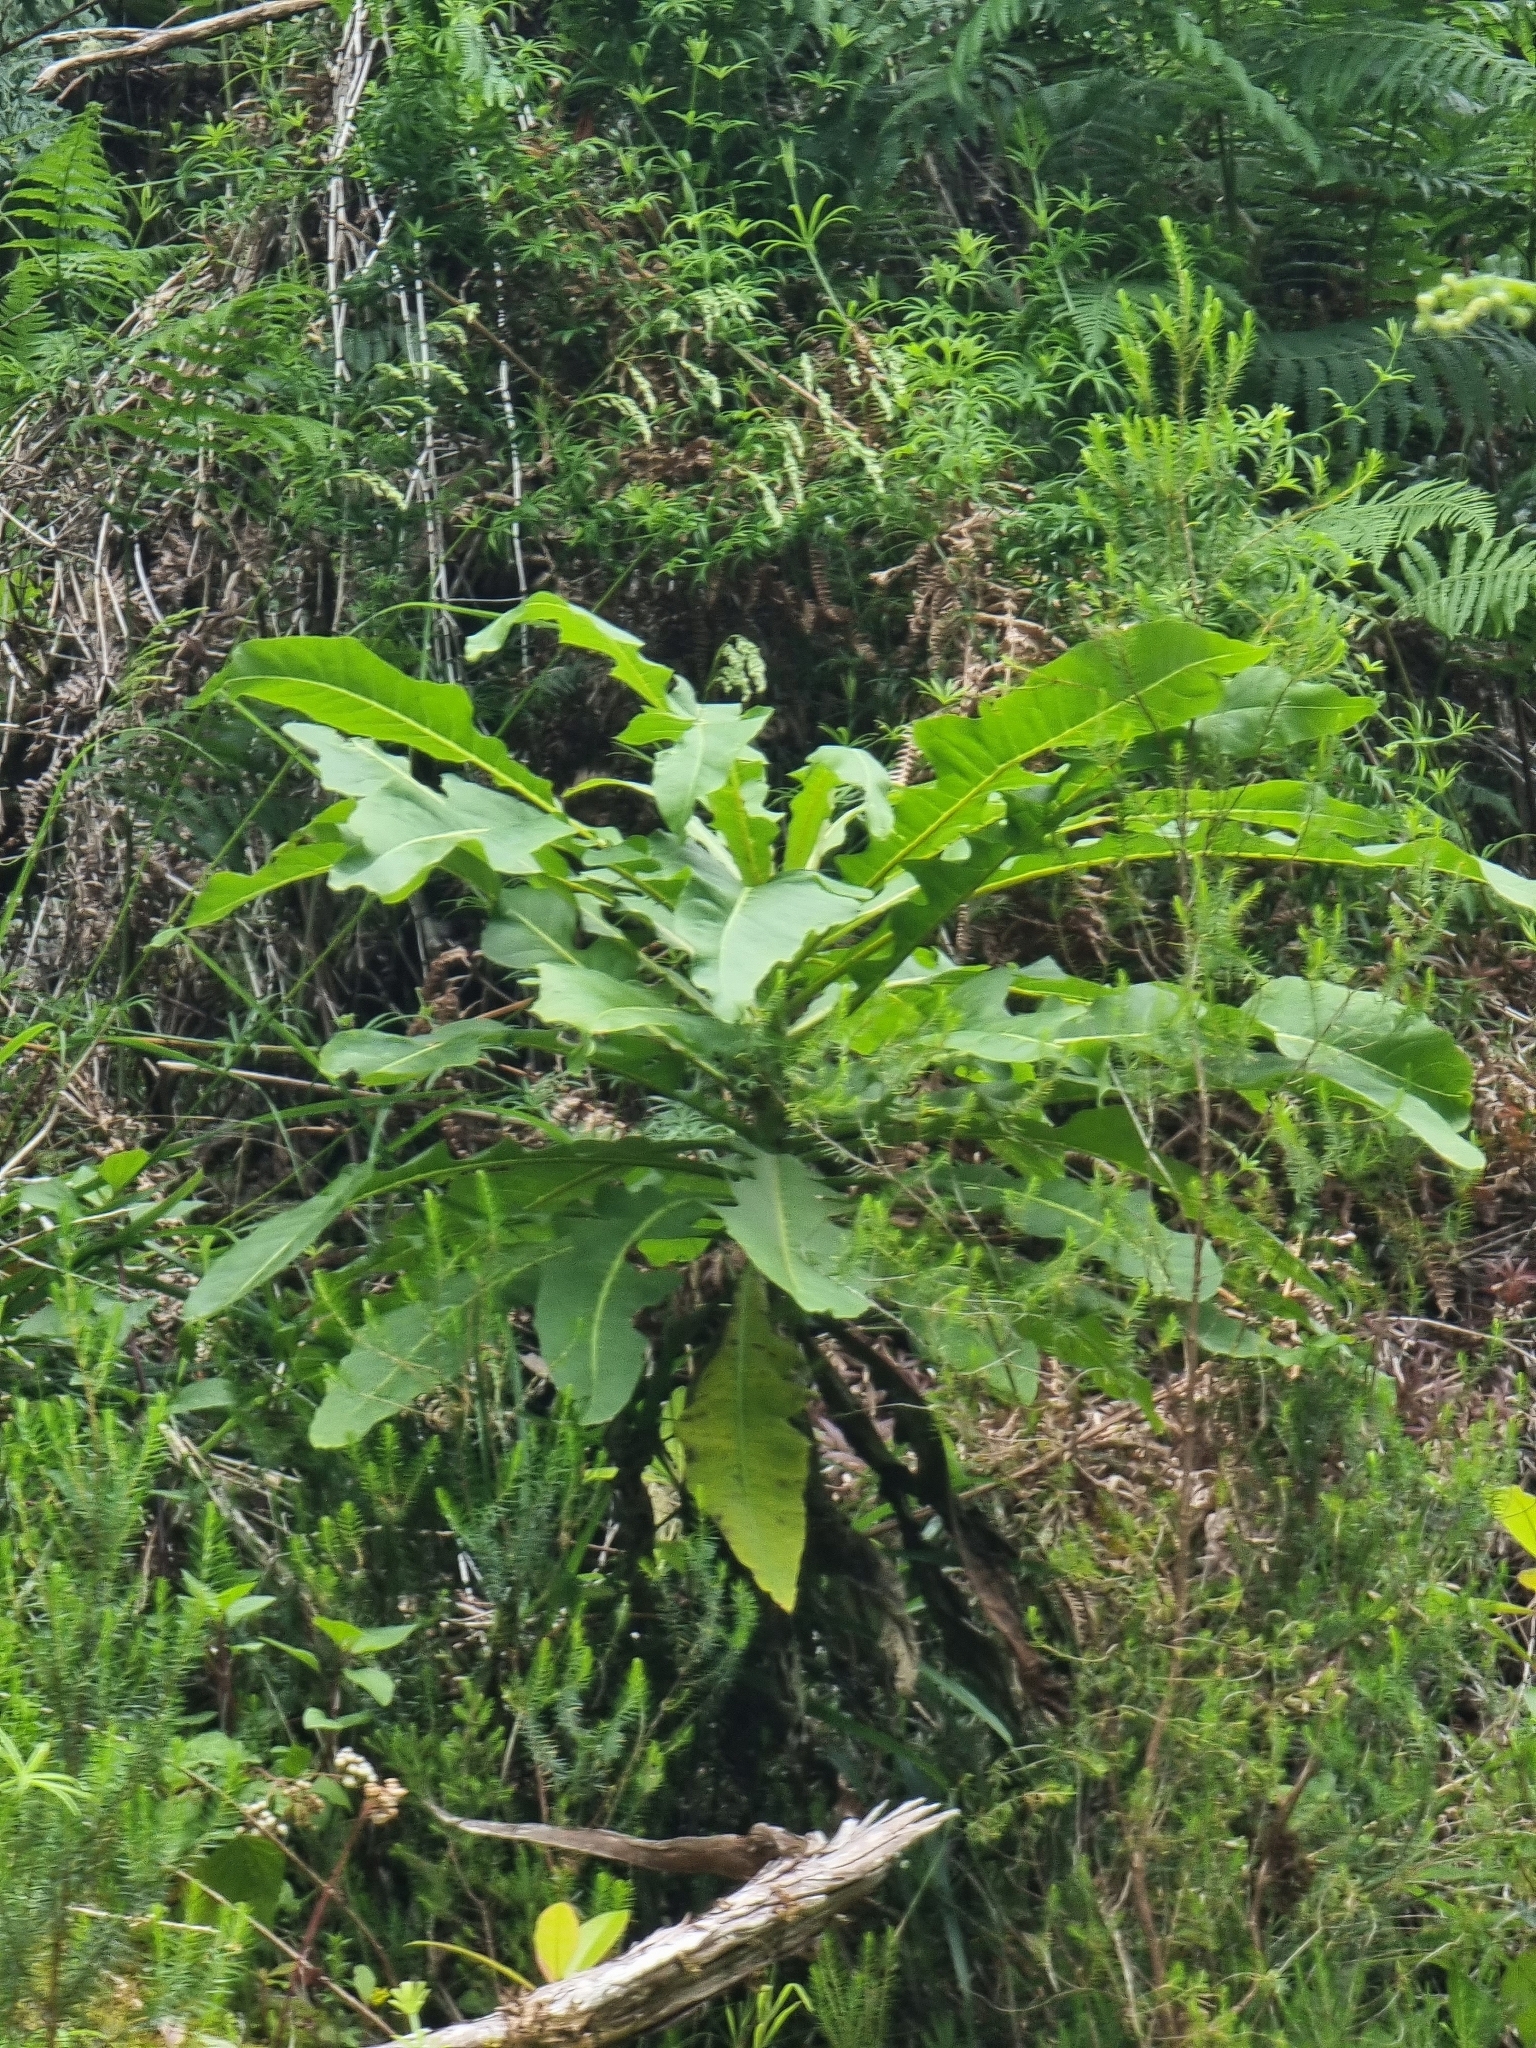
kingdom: Plantae
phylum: Tracheophyta
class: Magnoliopsida
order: Asterales
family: Asteraceae
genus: Sonchus
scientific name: Sonchus fruticosus
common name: Shrubby sow-thistle
